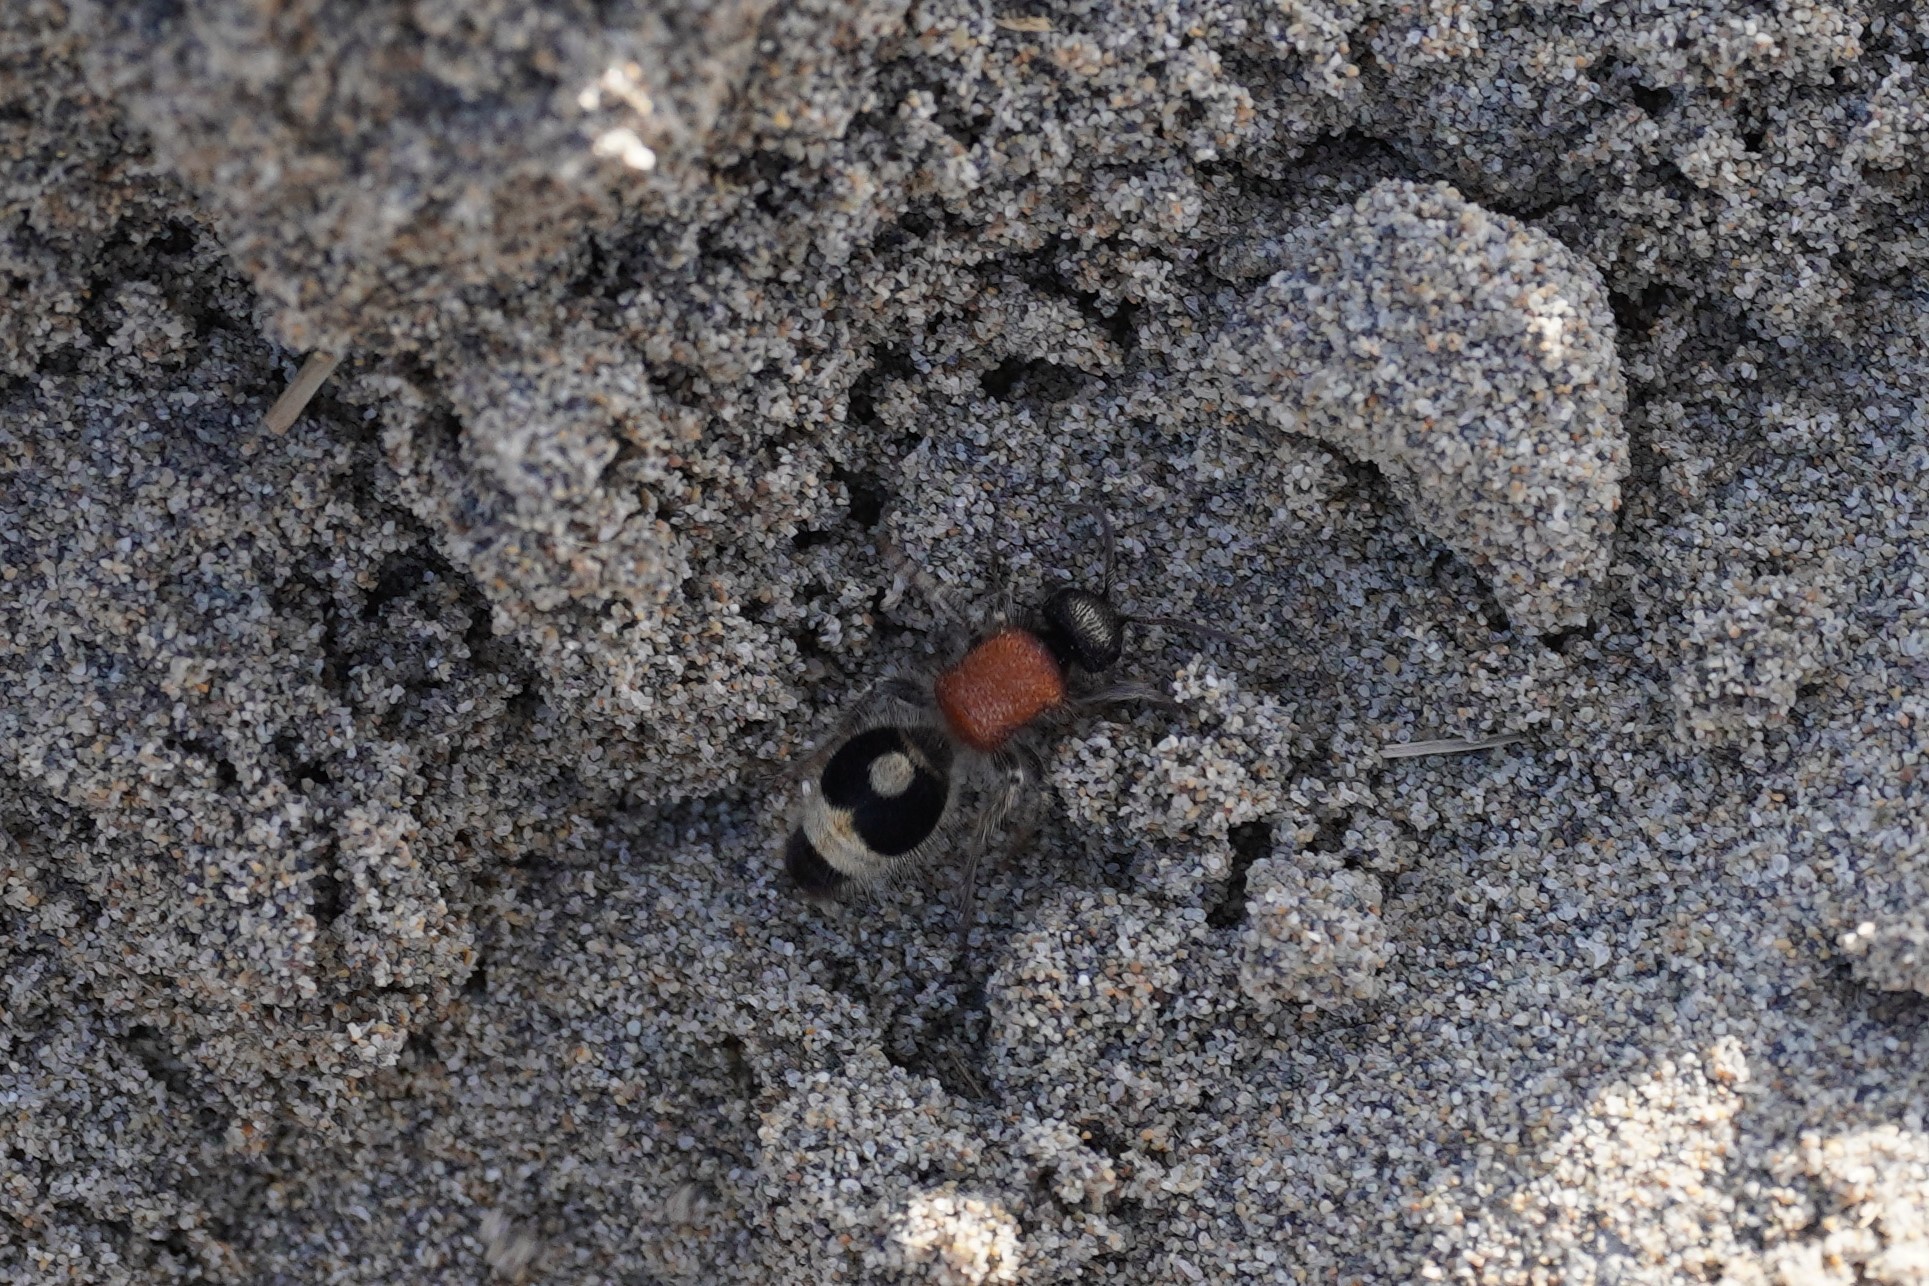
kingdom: Animalia
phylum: Arthropoda
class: Insecta
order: Hymenoptera
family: Mutillidae
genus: Nemka
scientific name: Nemka viduata
